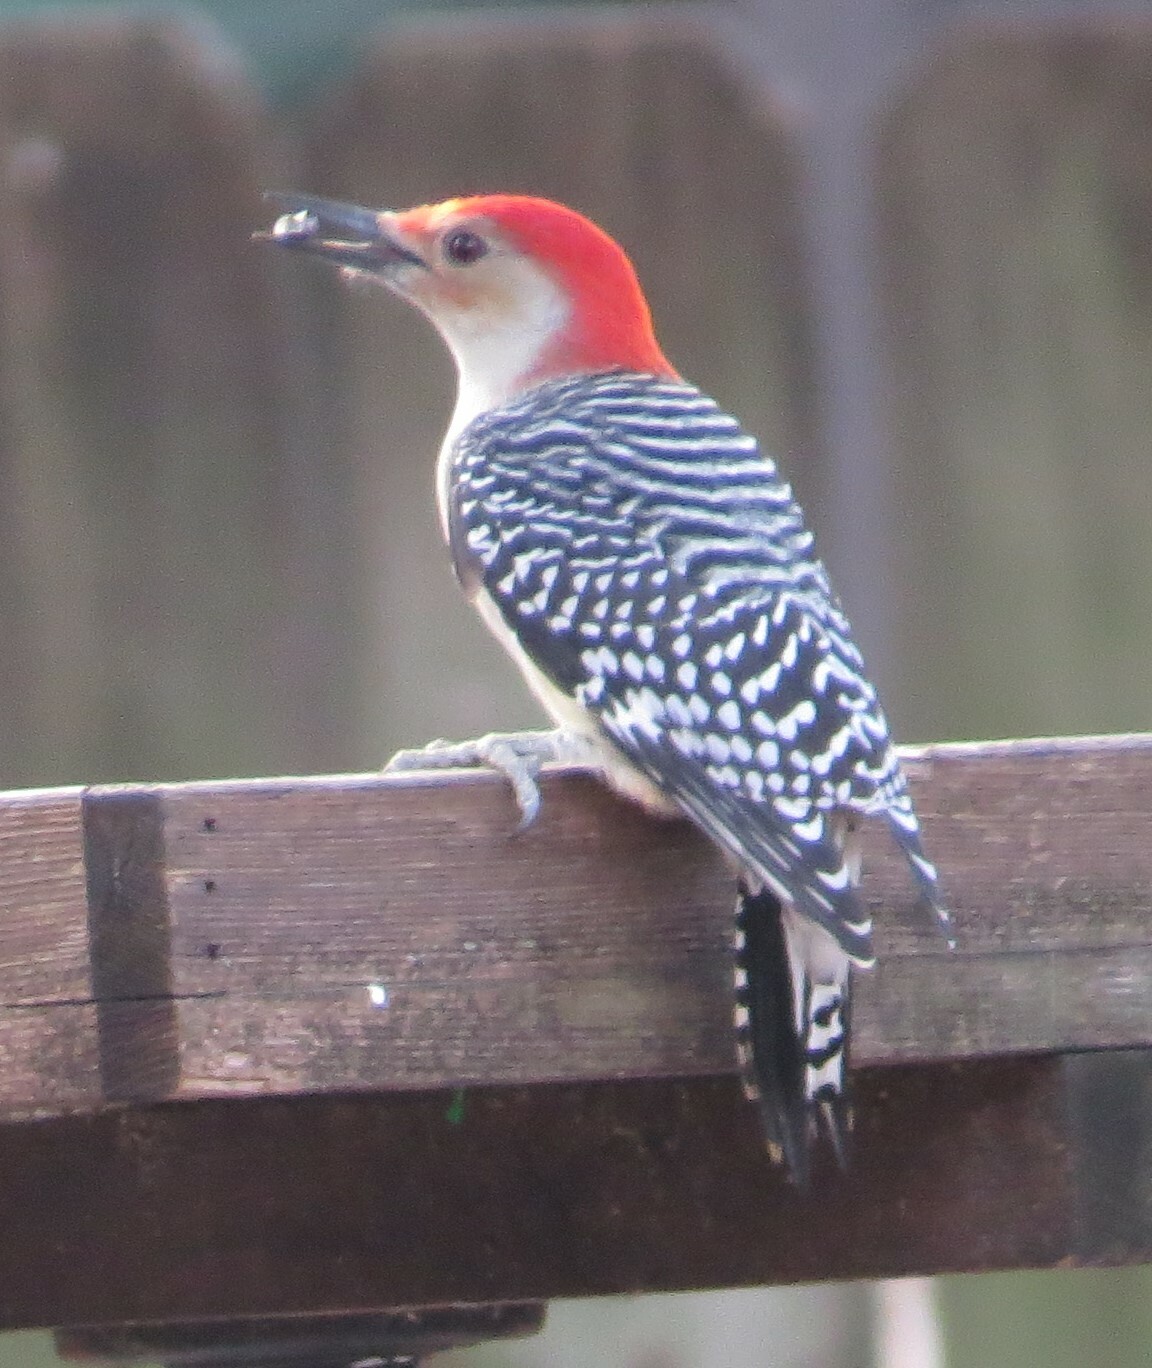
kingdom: Animalia
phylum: Chordata
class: Aves
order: Piciformes
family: Picidae
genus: Melanerpes
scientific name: Melanerpes carolinus
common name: Red-bellied woodpecker
